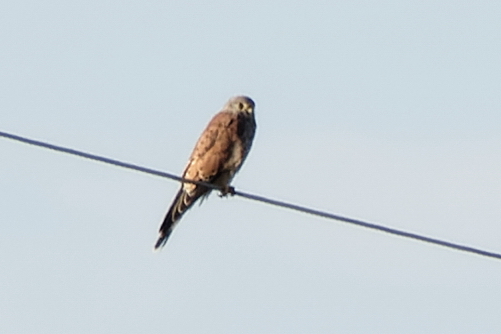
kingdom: Animalia
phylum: Chordata
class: Aves
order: Falconiformes
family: Falconidae
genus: Falco
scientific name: Falco tinnunculus
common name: Common kestrel
